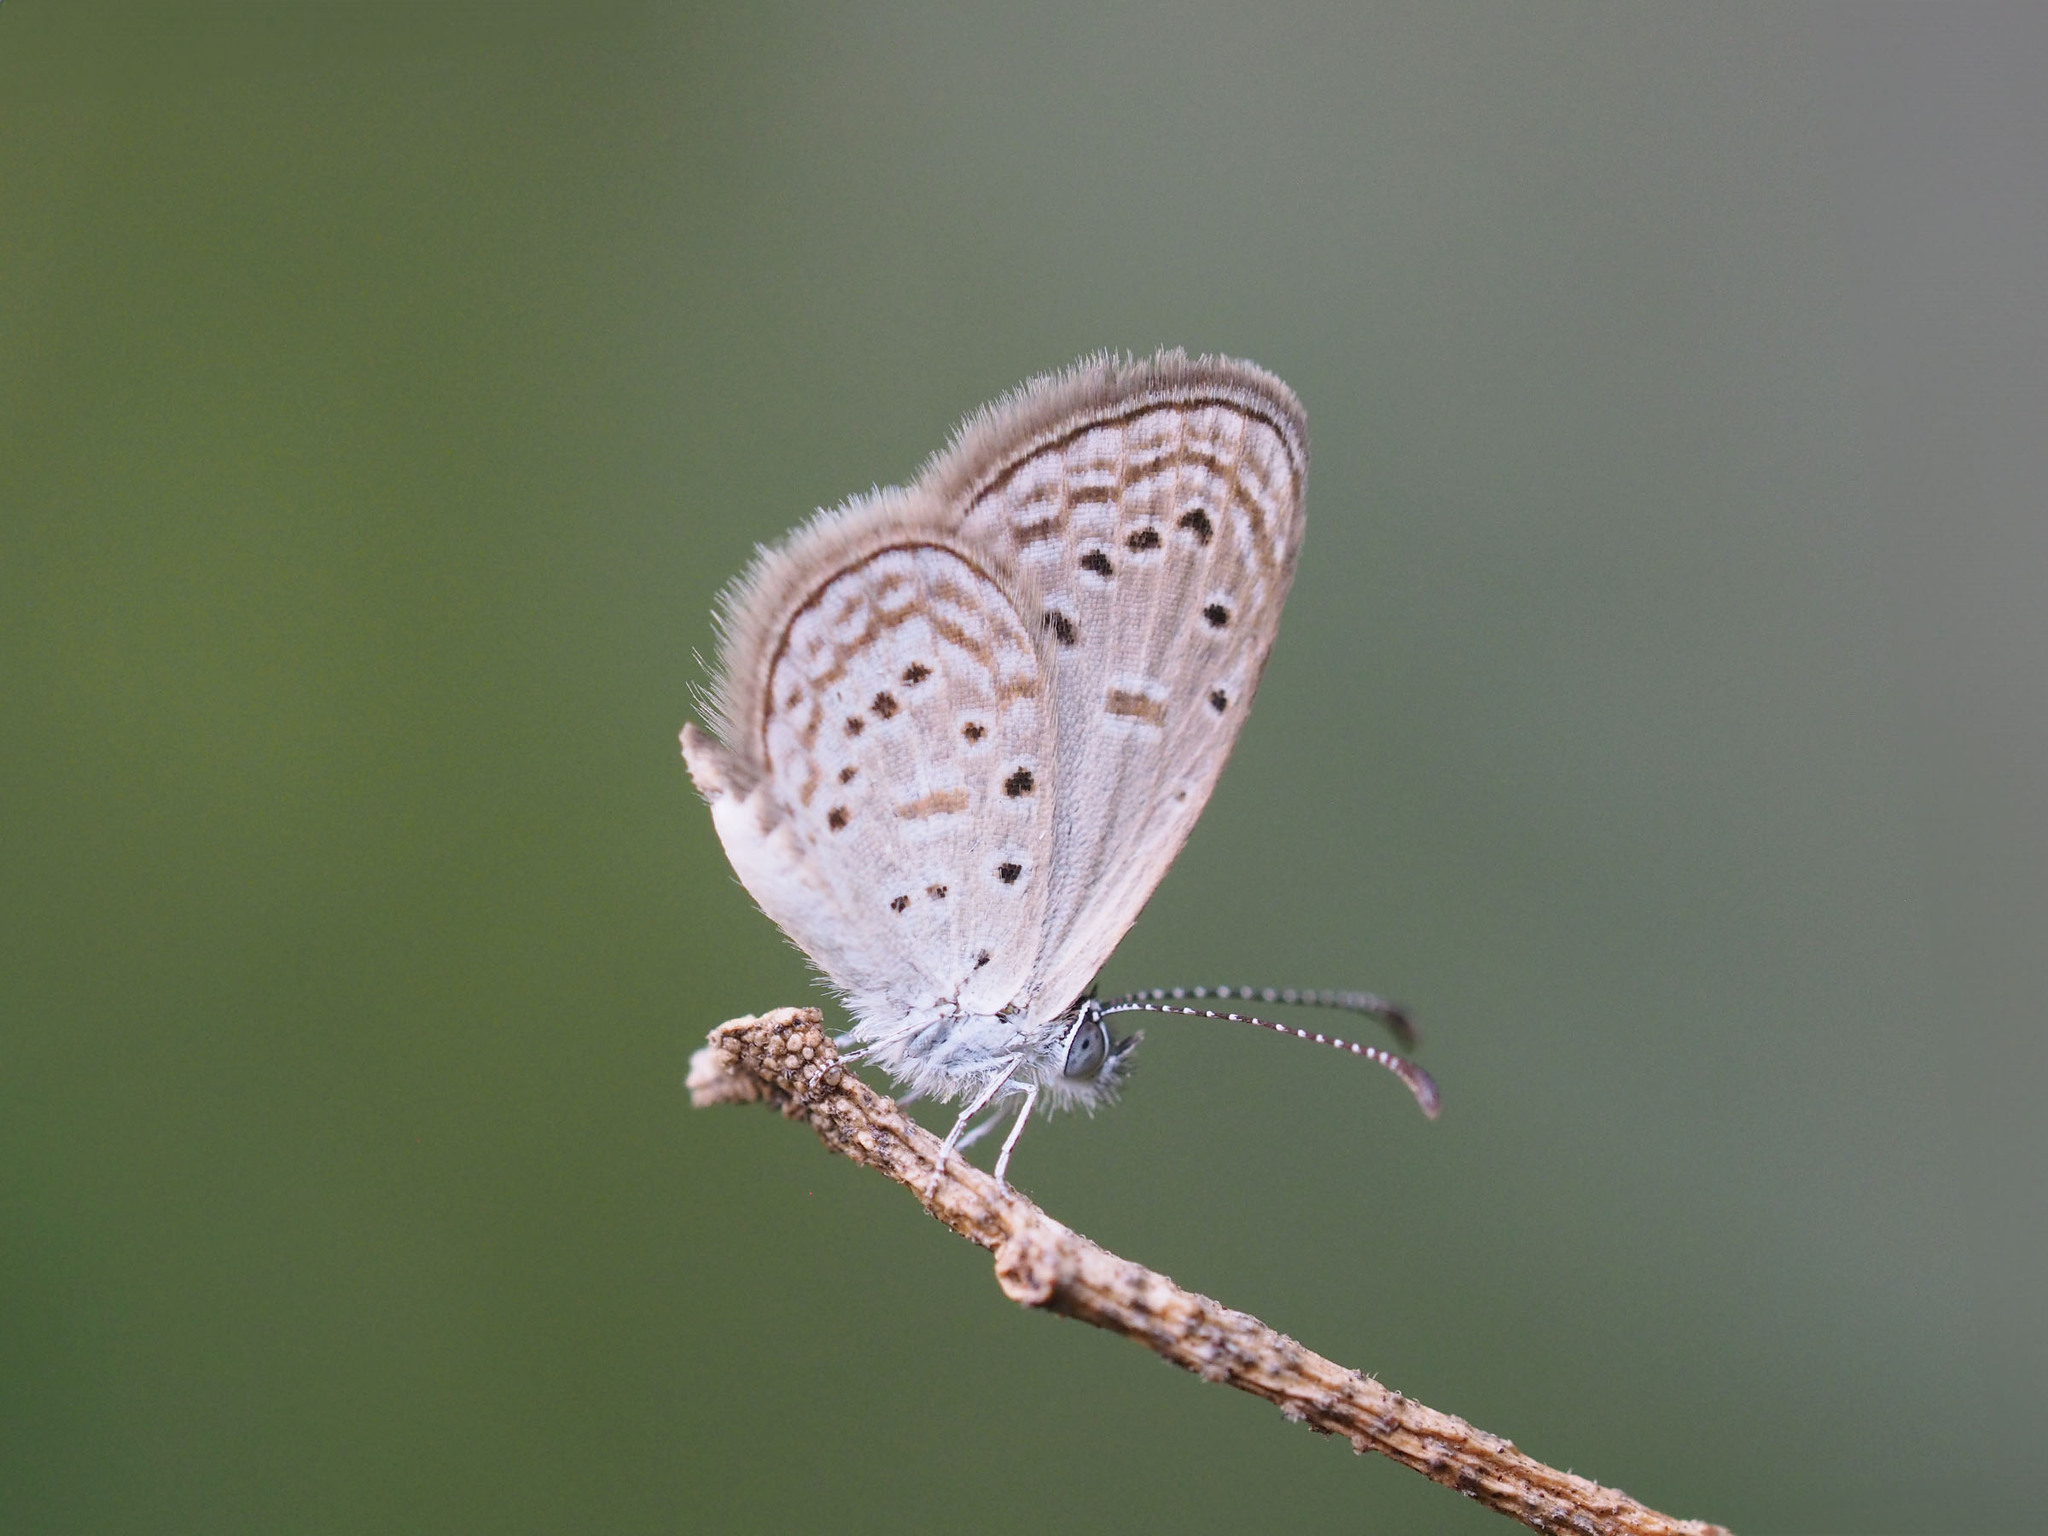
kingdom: Animalia
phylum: Arthropoda
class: Insecta
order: Lepidoptera
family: Lycaenidae
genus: Zizula
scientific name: Zizula hylax
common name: Gaika blue
